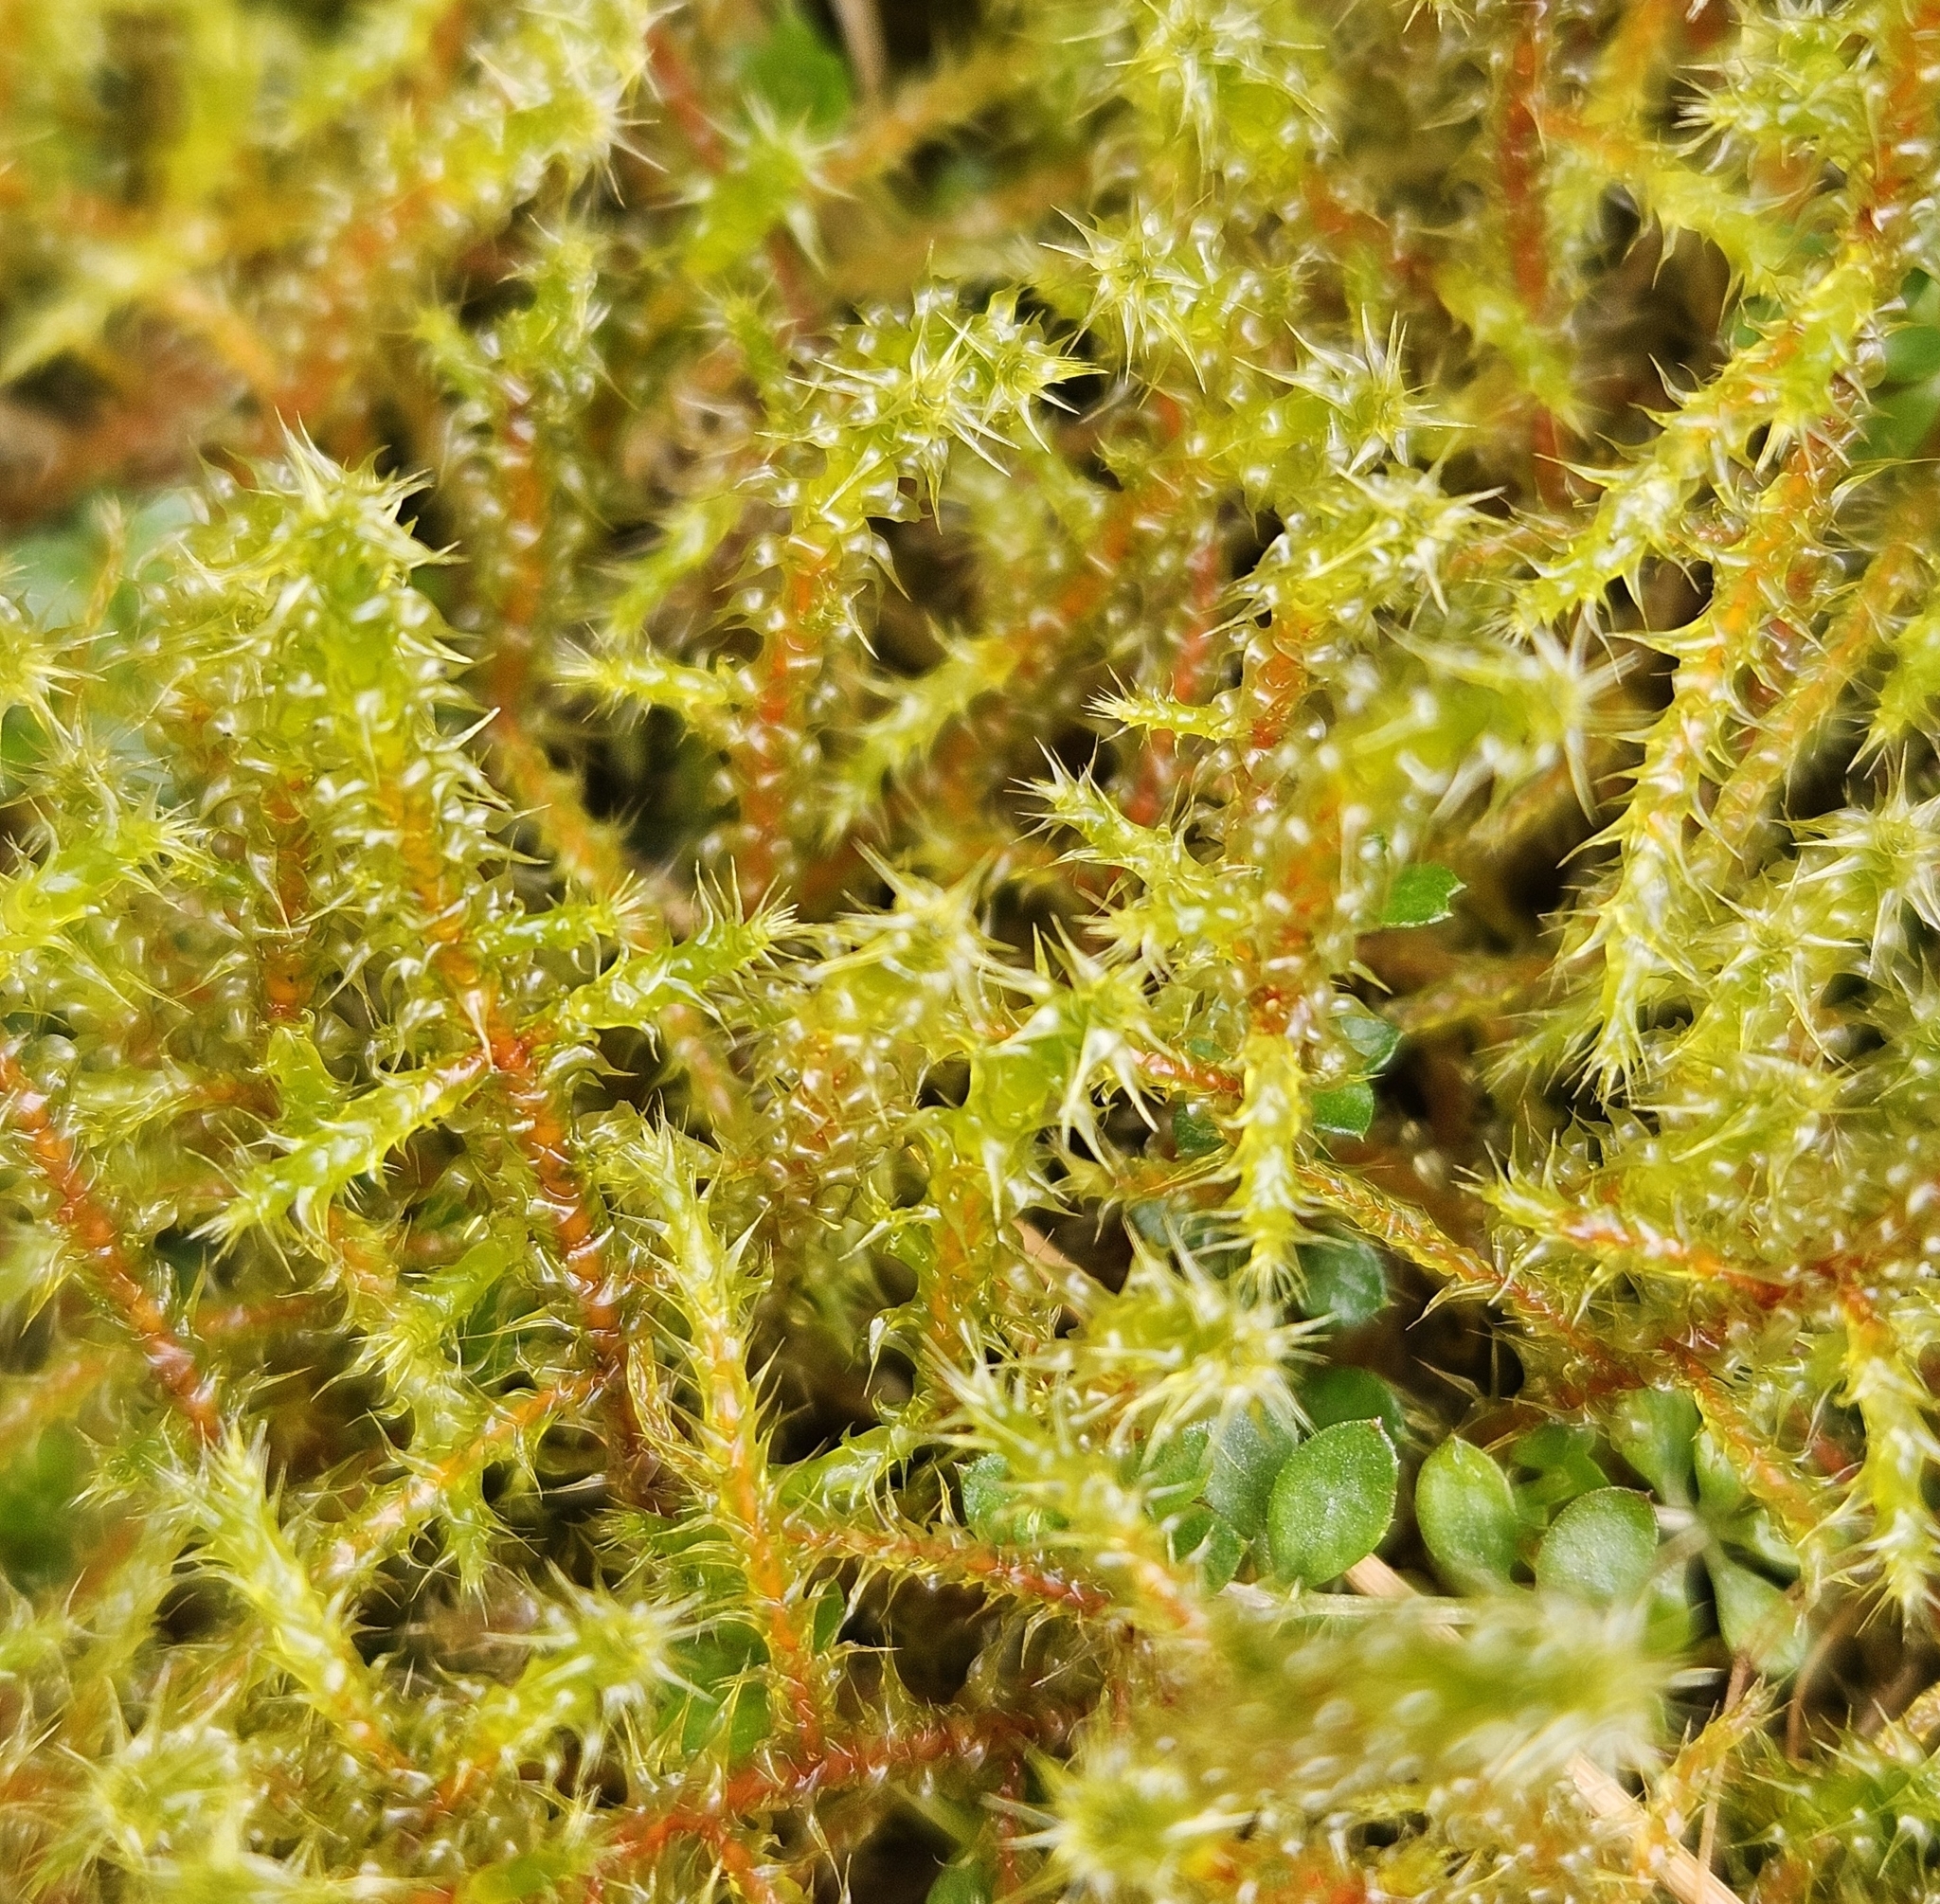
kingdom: Plantae
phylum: Bryophyta
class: Bryopsida
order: Hypnales
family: Hylocomiaceae
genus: Rhytidiadelphus
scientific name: Rhytidiadelphus squarrosus
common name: Springy turf-moss
